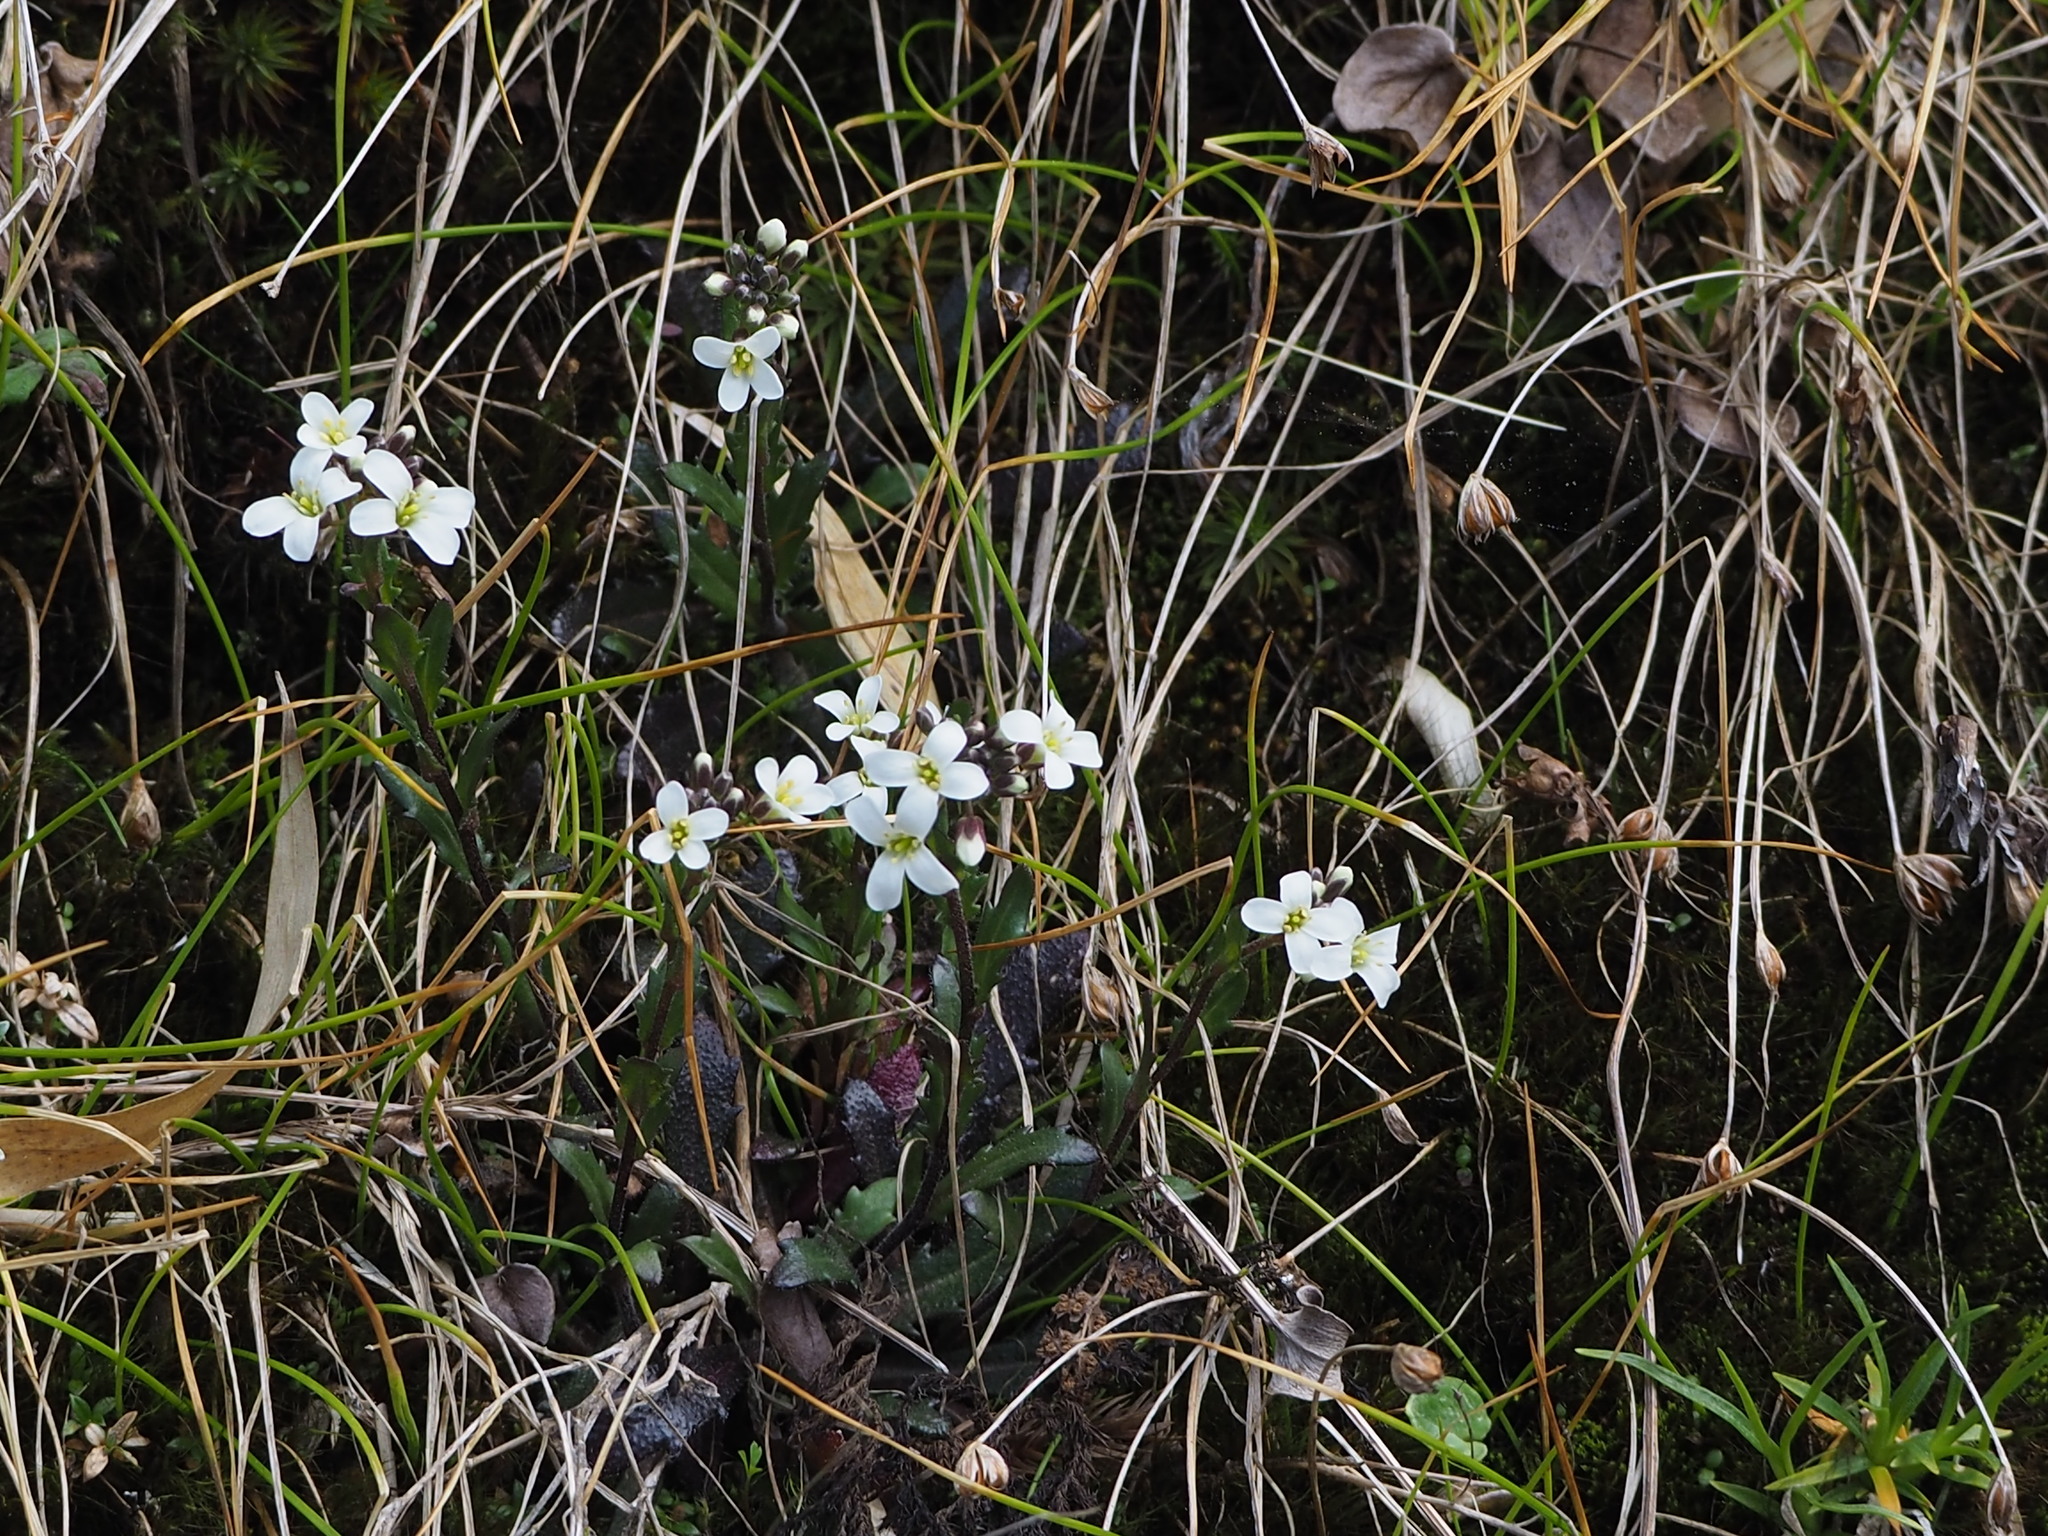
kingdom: Plantae
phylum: Tracheophyta
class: Magnoliopsida
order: Brassicales
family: Brassicaceae
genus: Arabidopsis
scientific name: Arabidopsis lyrata
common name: Lyrate rockcress
